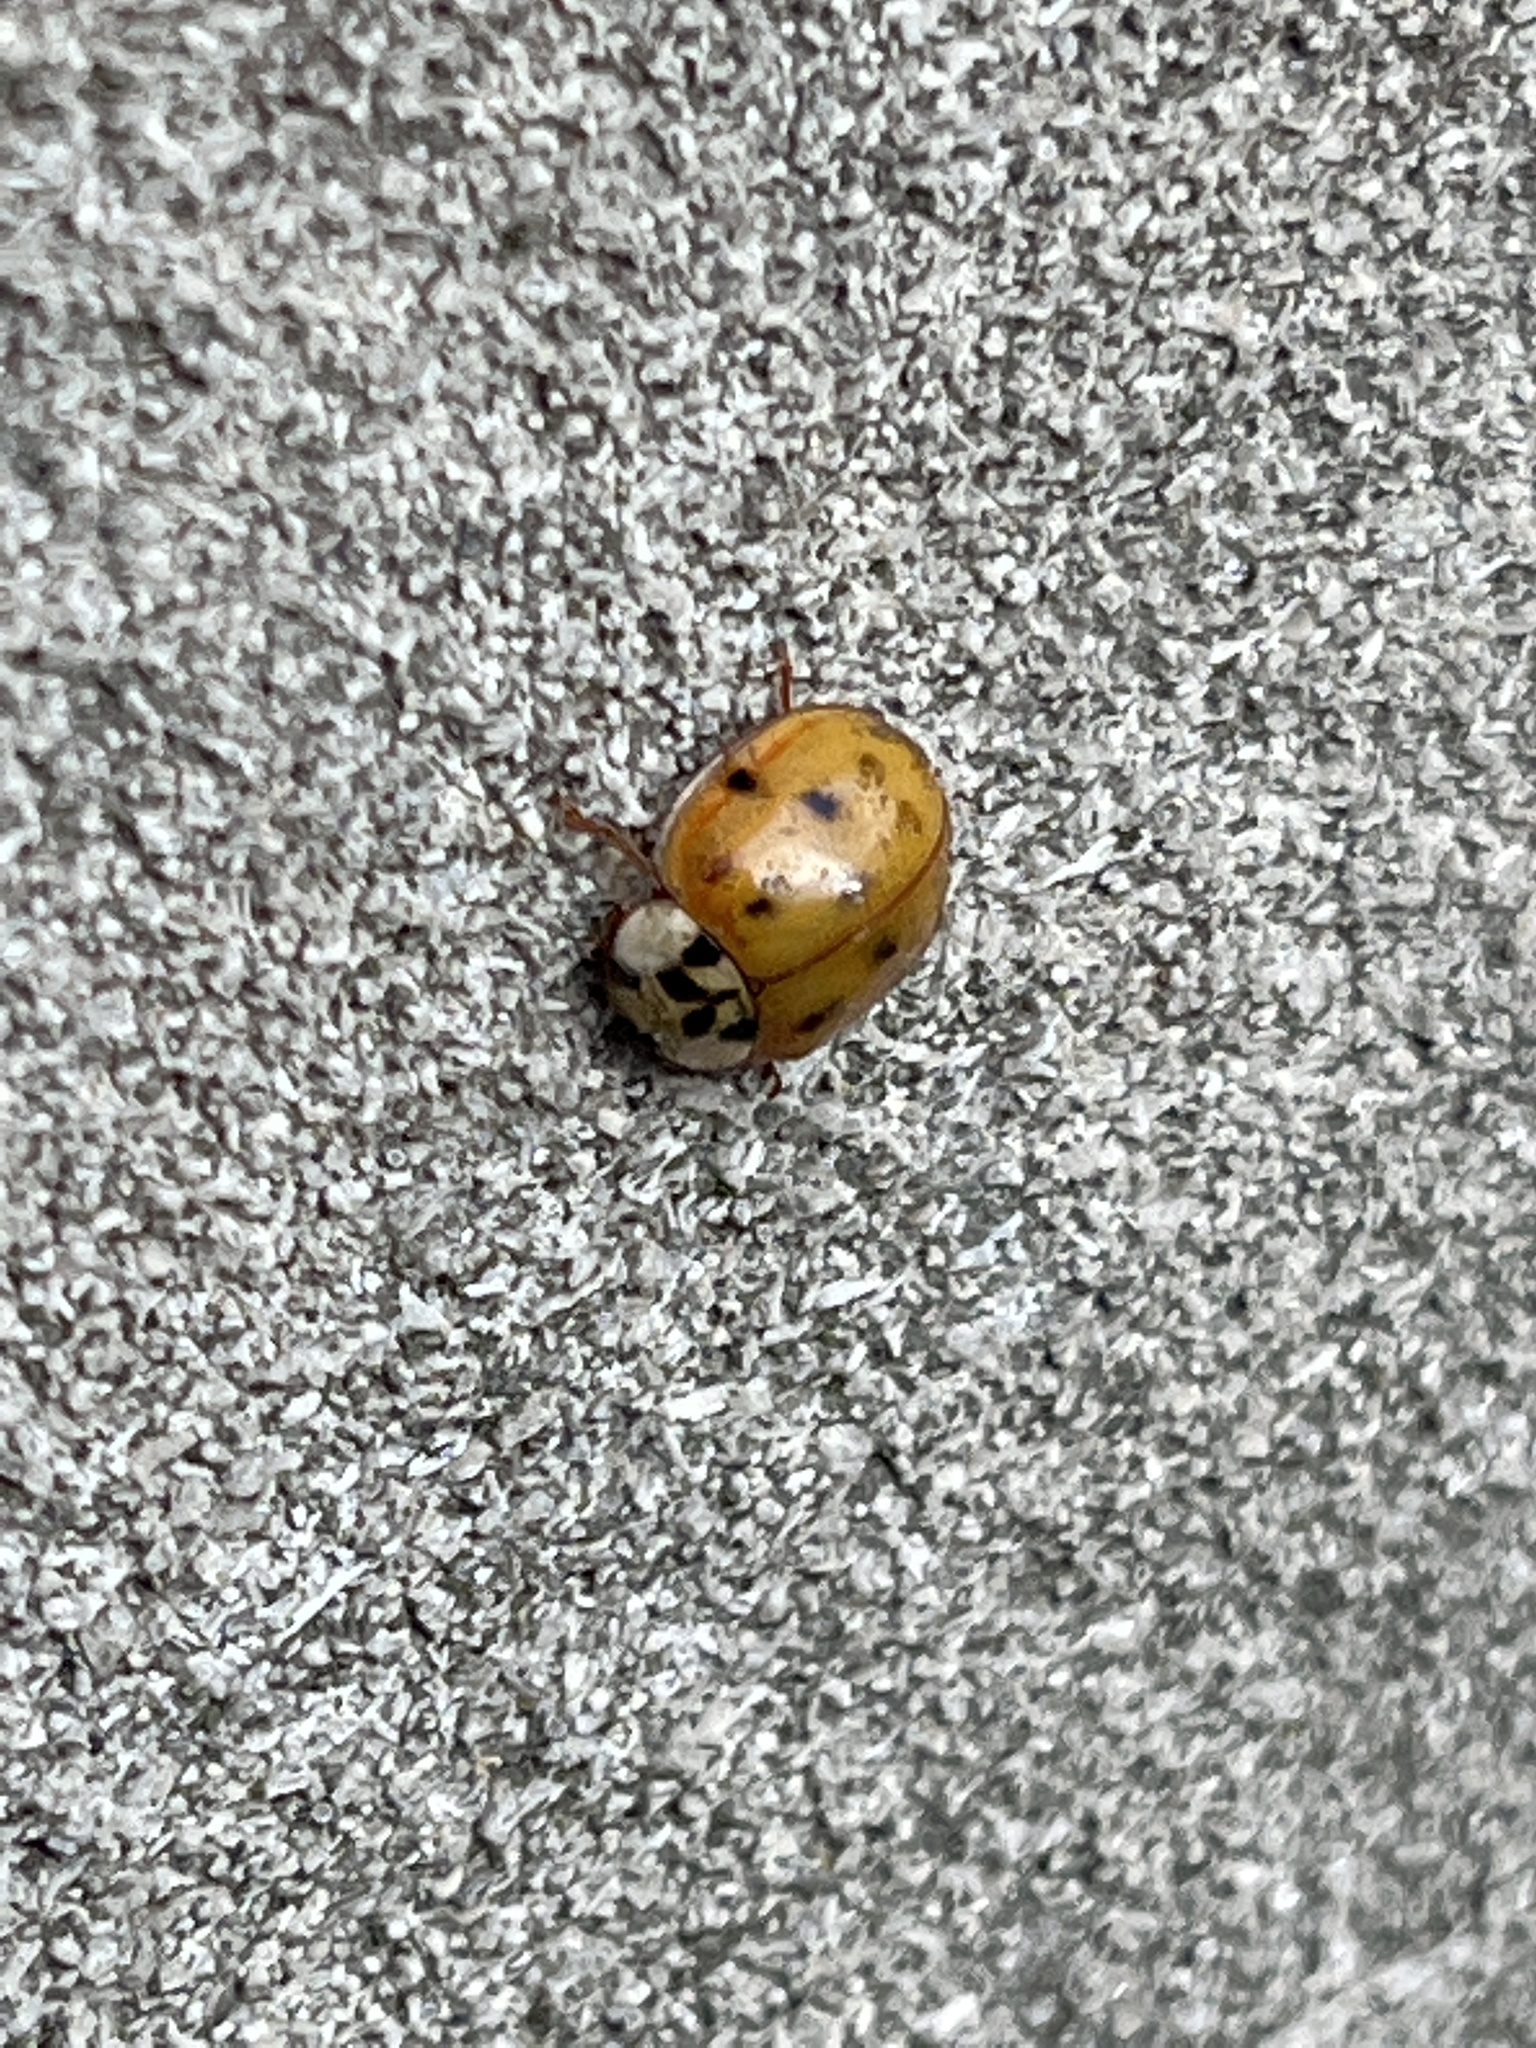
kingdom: Animalia
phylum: Arthropoda
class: Insecta
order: Coleoptera
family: Coccinellidae
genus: Harmonia
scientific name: Harmonia axyridis
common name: Harlequin ladybird
